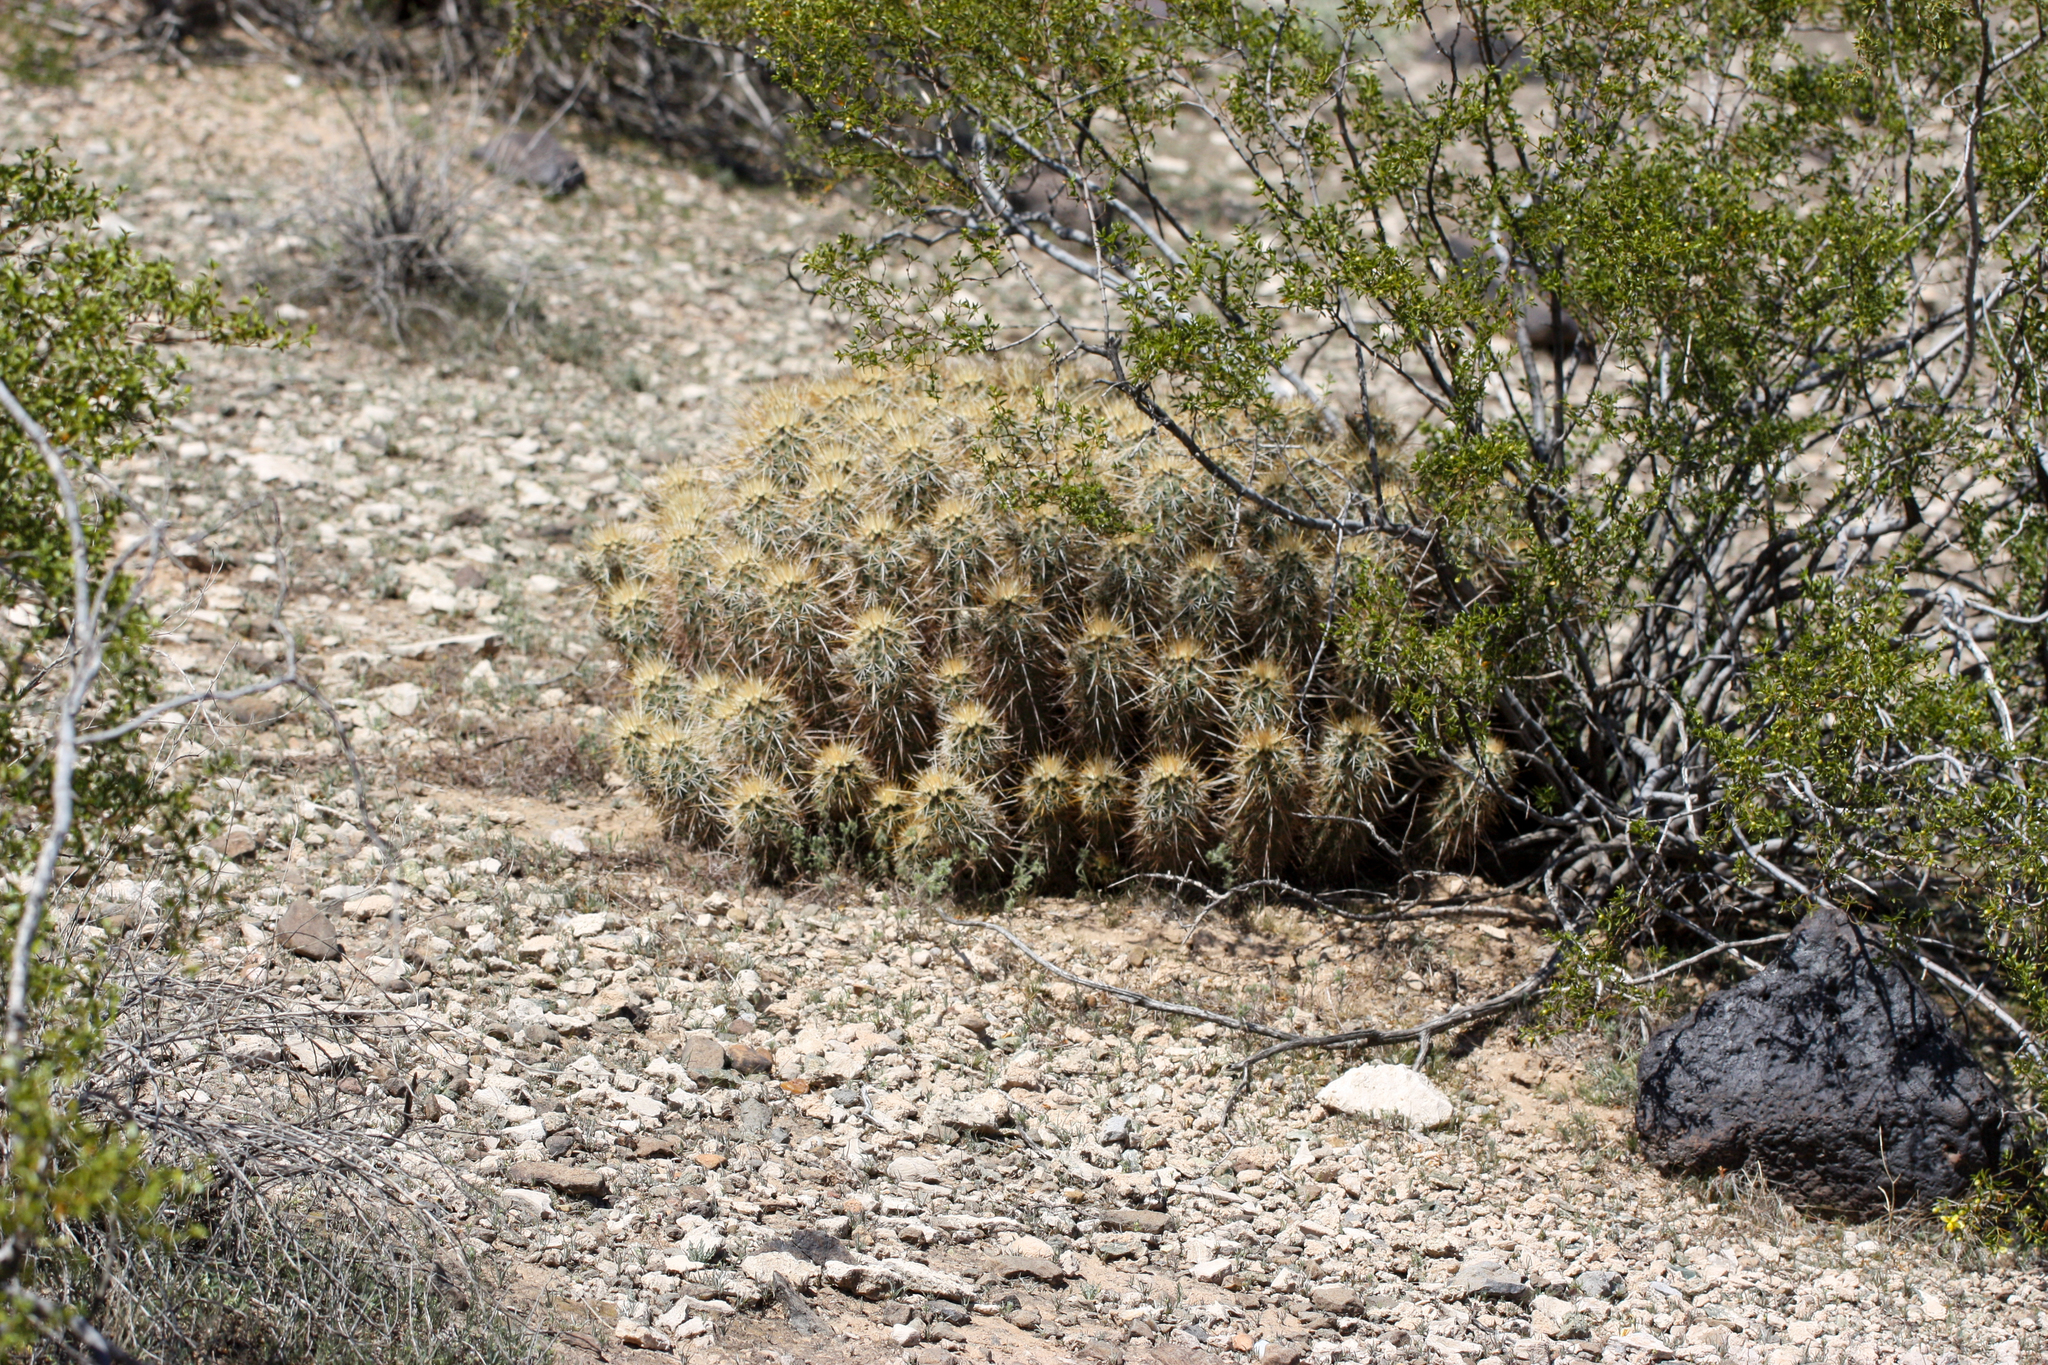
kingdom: Plantae
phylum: Tracheophyta
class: Magnoliopsida
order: Caryophyllales
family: Cactaceae
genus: Echinocereus
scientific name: Echinocereus engelmannii
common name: Engelmann's hedgehog cactus
